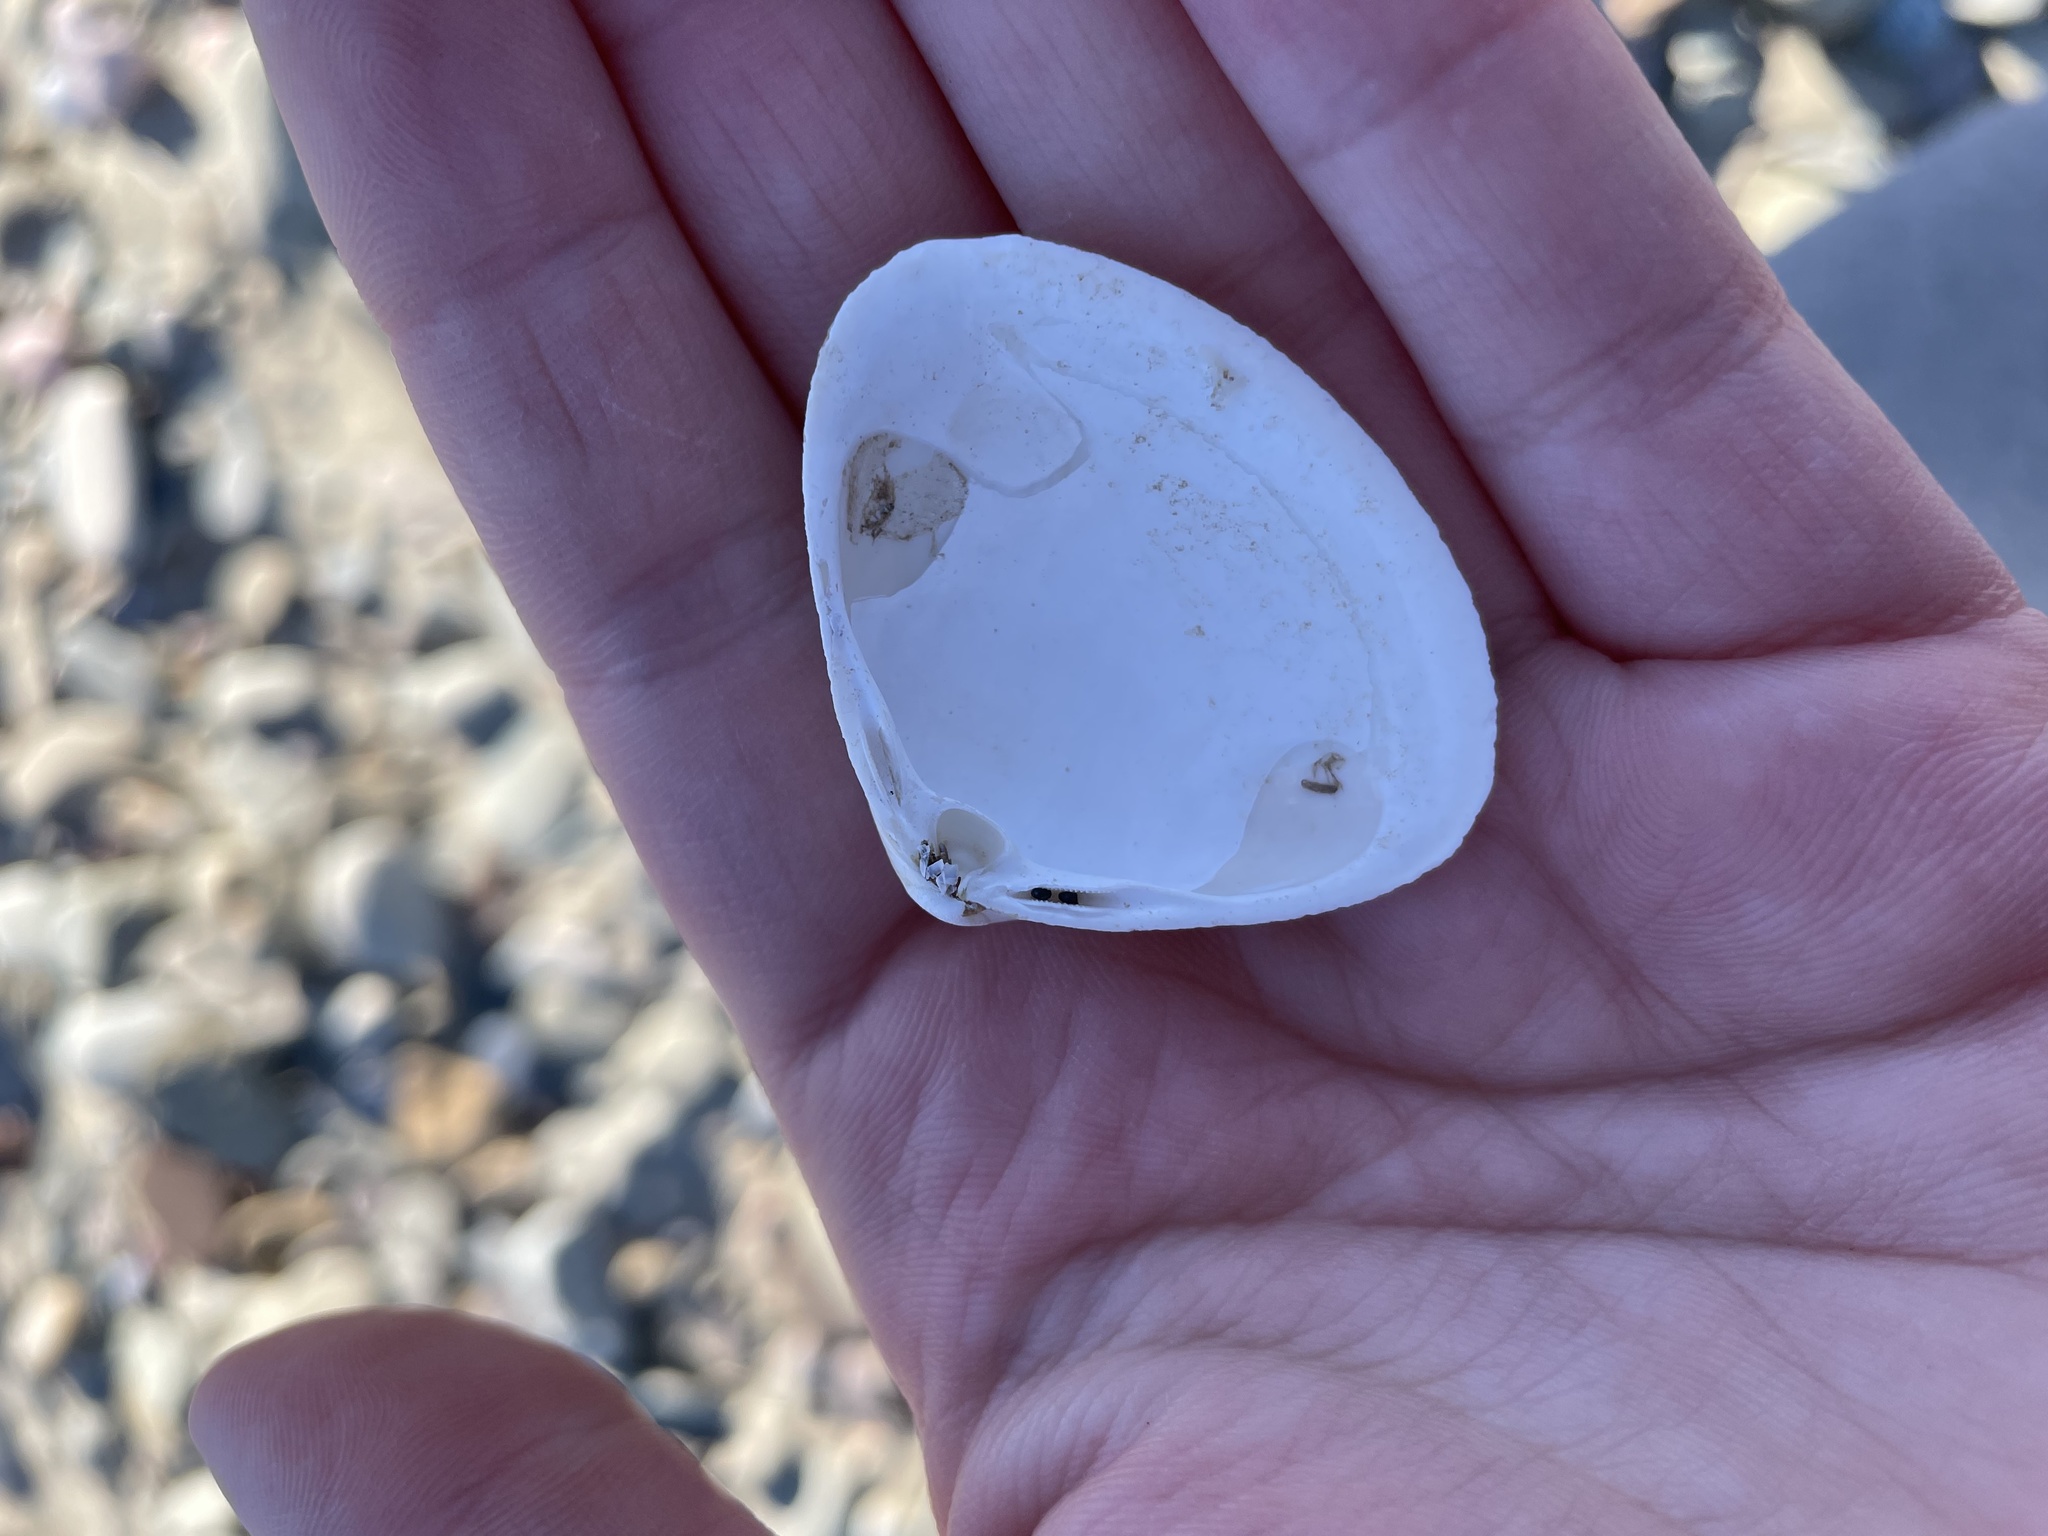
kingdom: Animalia
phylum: Mollusca
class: Bivalvia
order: Venerida
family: Mactridae
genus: Spisula
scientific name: Spisula solidissima
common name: Atlantic surf clam
